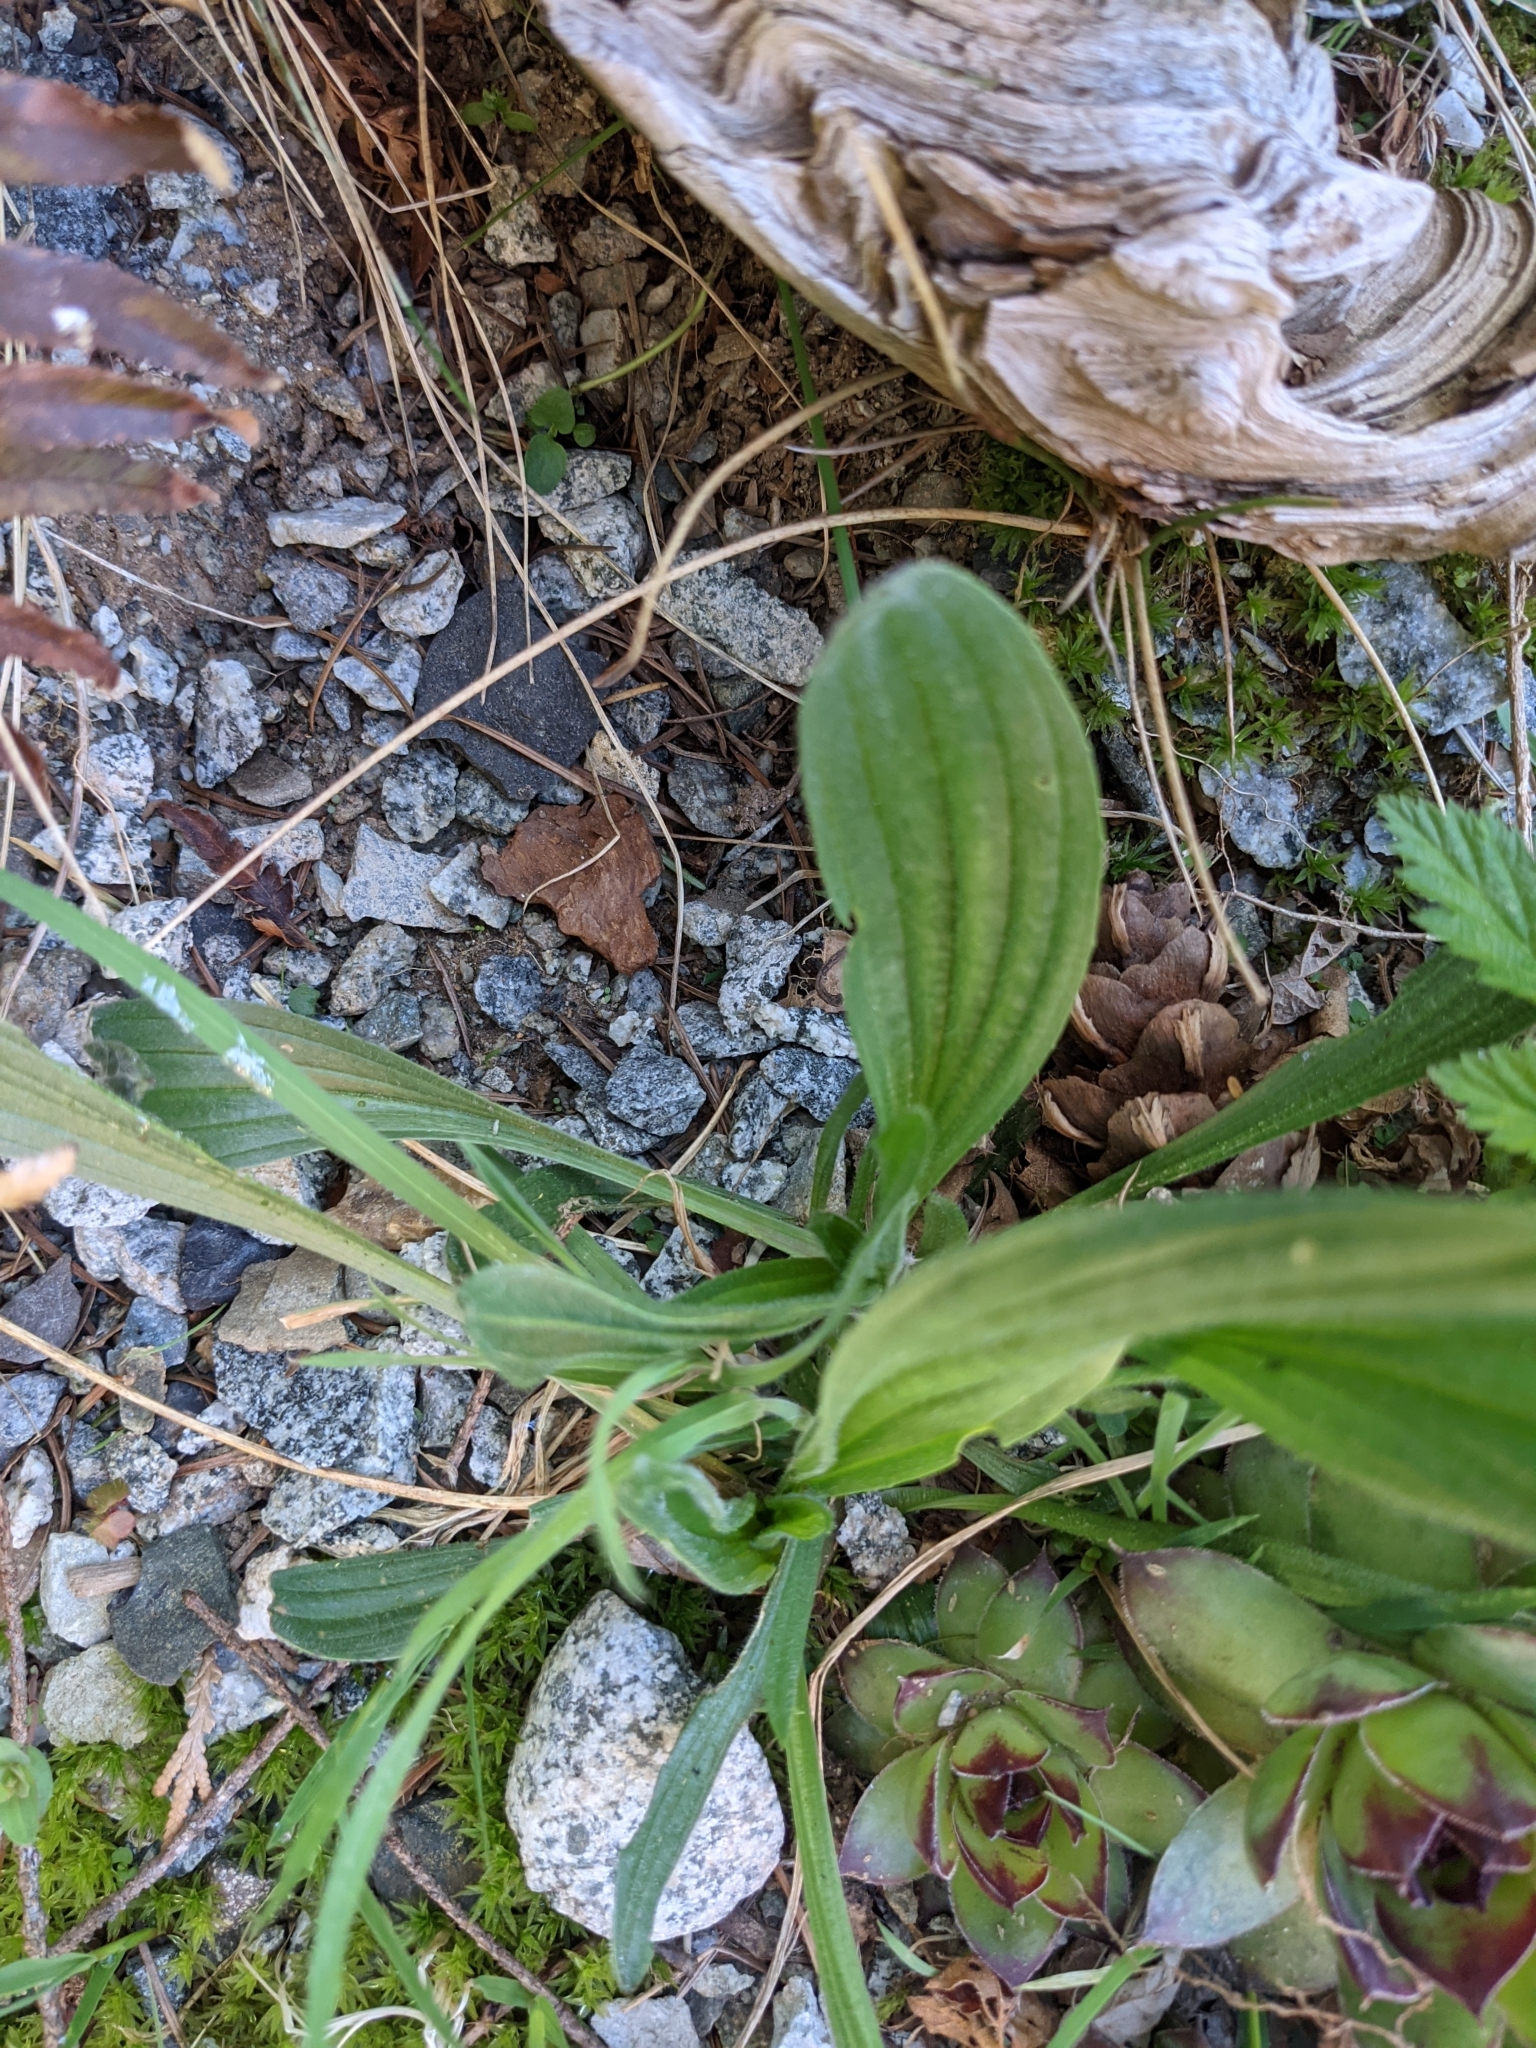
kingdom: Plantae
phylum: Tracheophyta
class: Magnoliopsida
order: Lamiales
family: Plantaginaceae
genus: Plantago
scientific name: Plantago lanceolata
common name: Ribwort plantain
